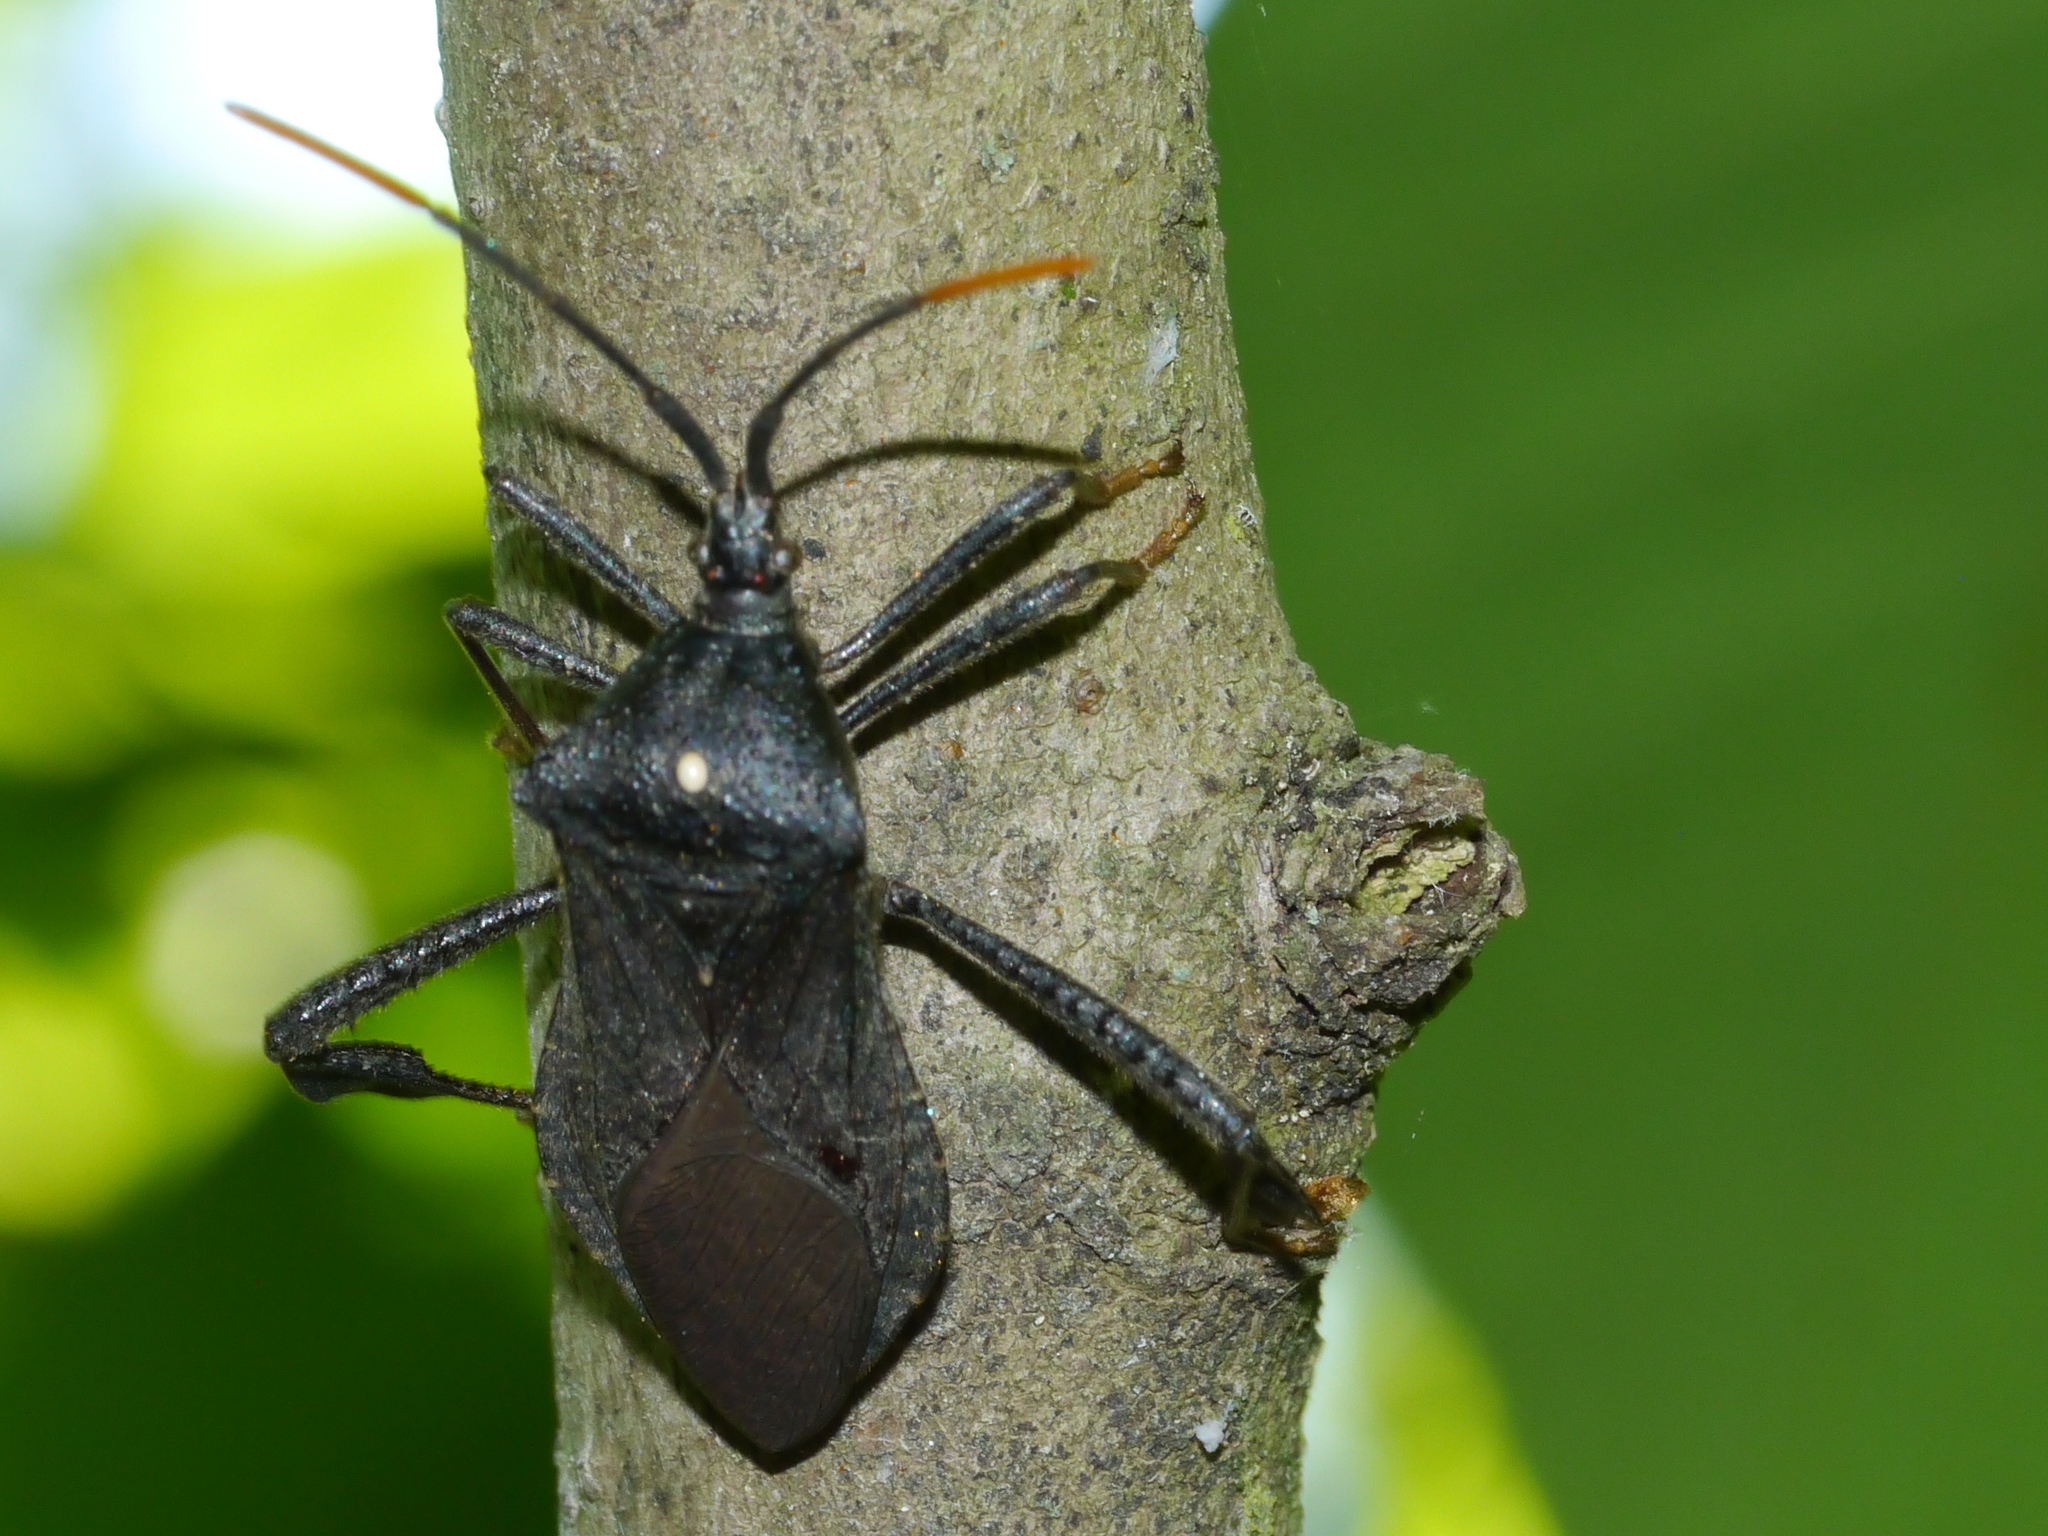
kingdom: Animalia
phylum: Arthropoda
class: Insecta
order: Hemiptera
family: Coreidae
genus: Acanthocephala
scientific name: Acanthocephala terminalis
